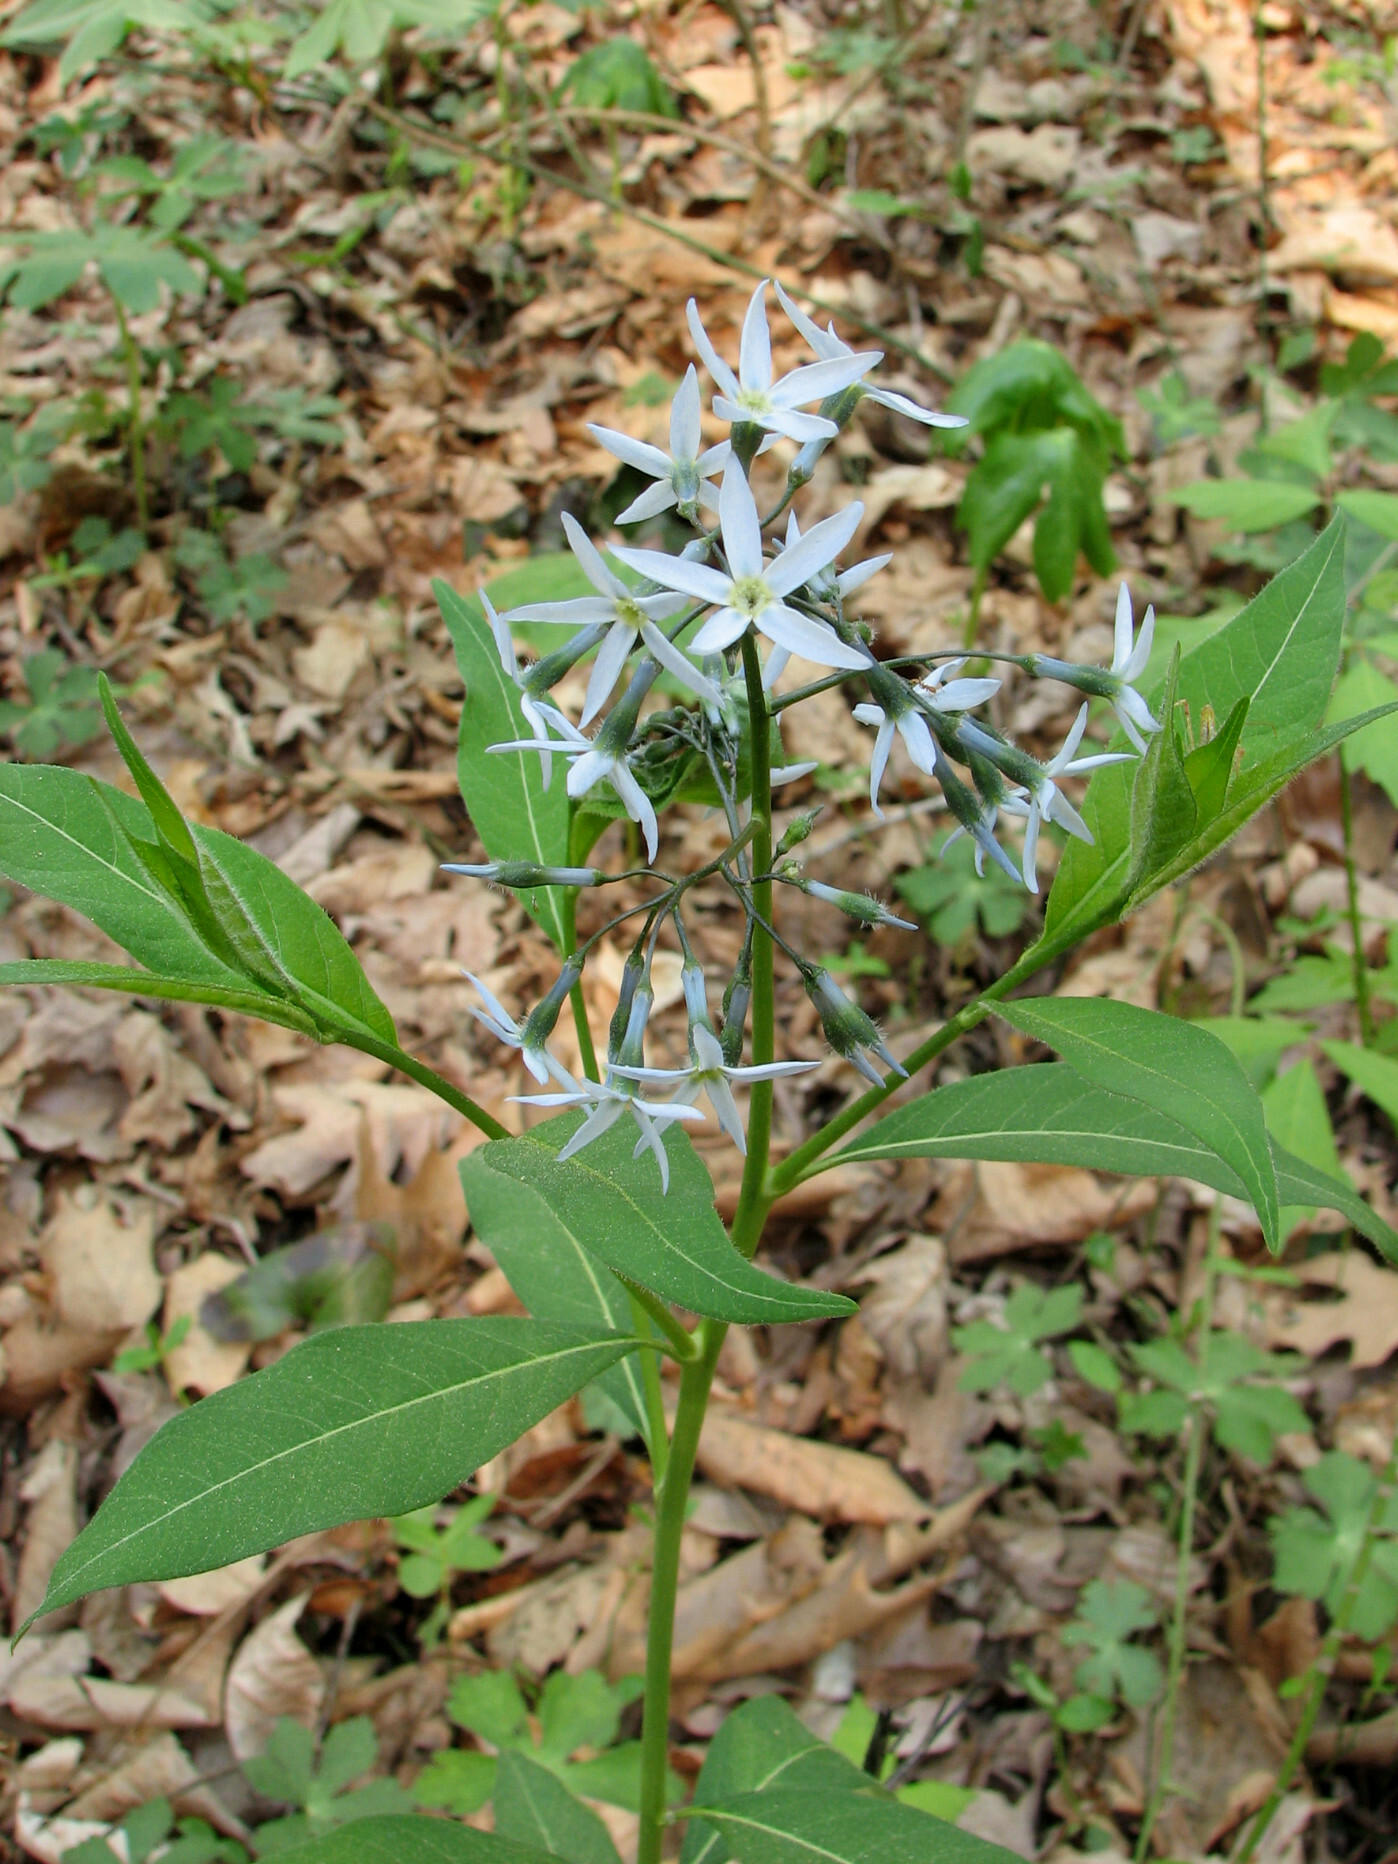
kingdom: Plantae
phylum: Tracheophyta
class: Magnoliopsida
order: Gentianales
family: Apocynaceae
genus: Amsonia
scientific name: Amsonia tabernaemontana
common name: Texas-star
